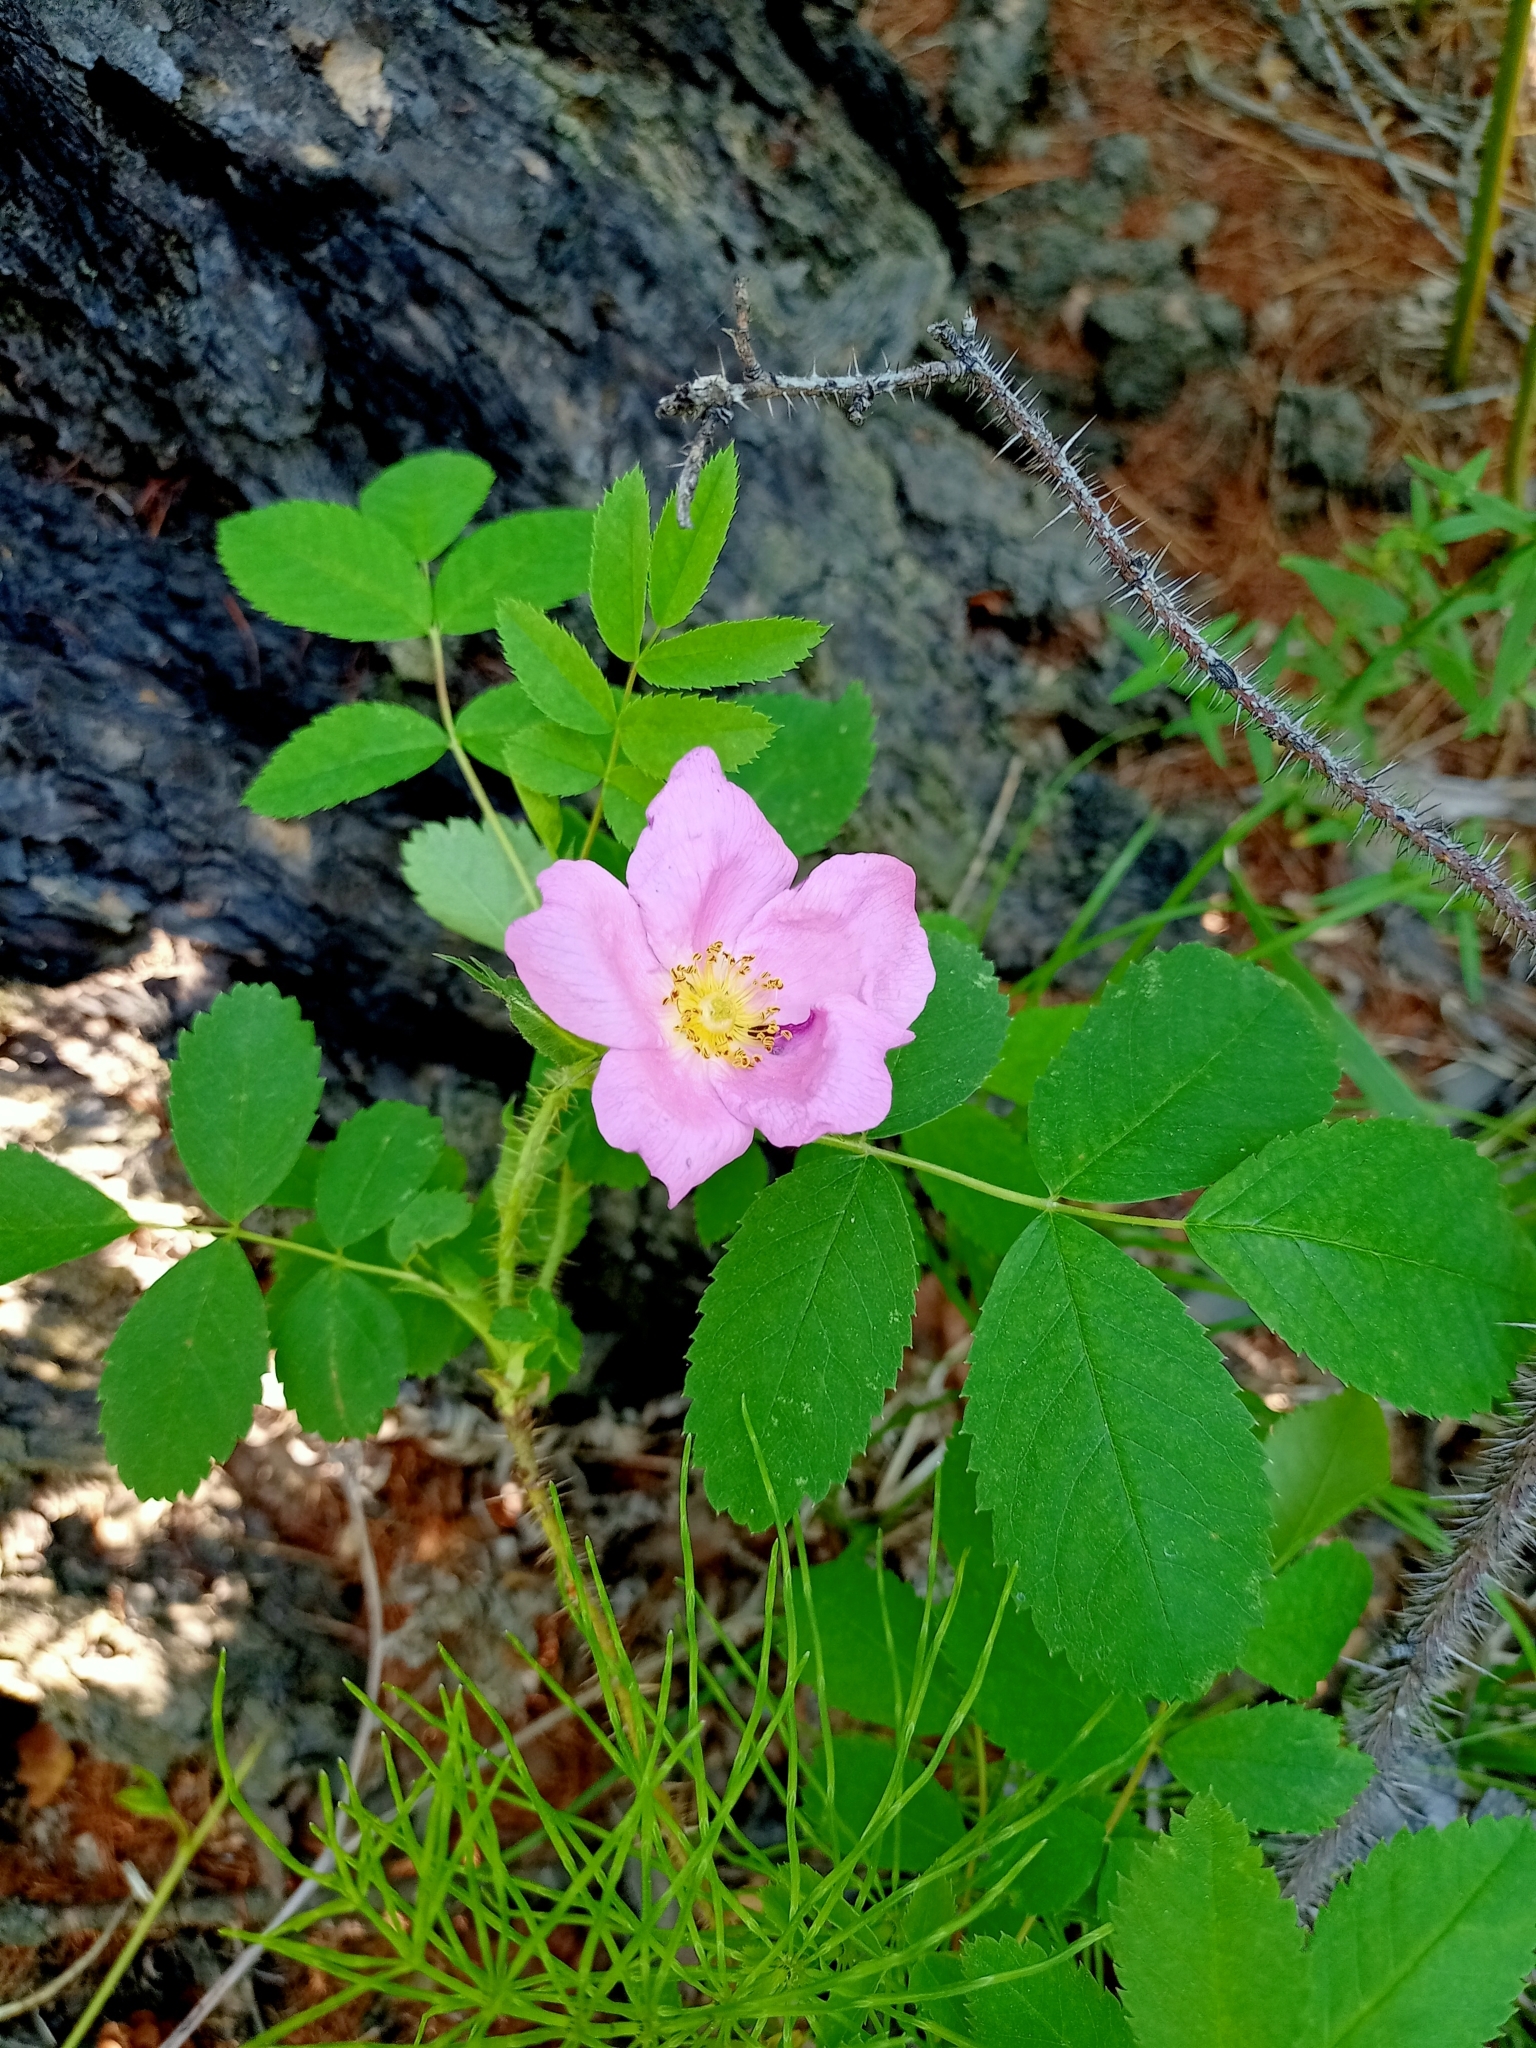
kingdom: Plantae
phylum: Tracheophyta
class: Magnoliopsida
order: Rosales
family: Rosaceae
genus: Rosa
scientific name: Rosa acicularis
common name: Prickly rose
